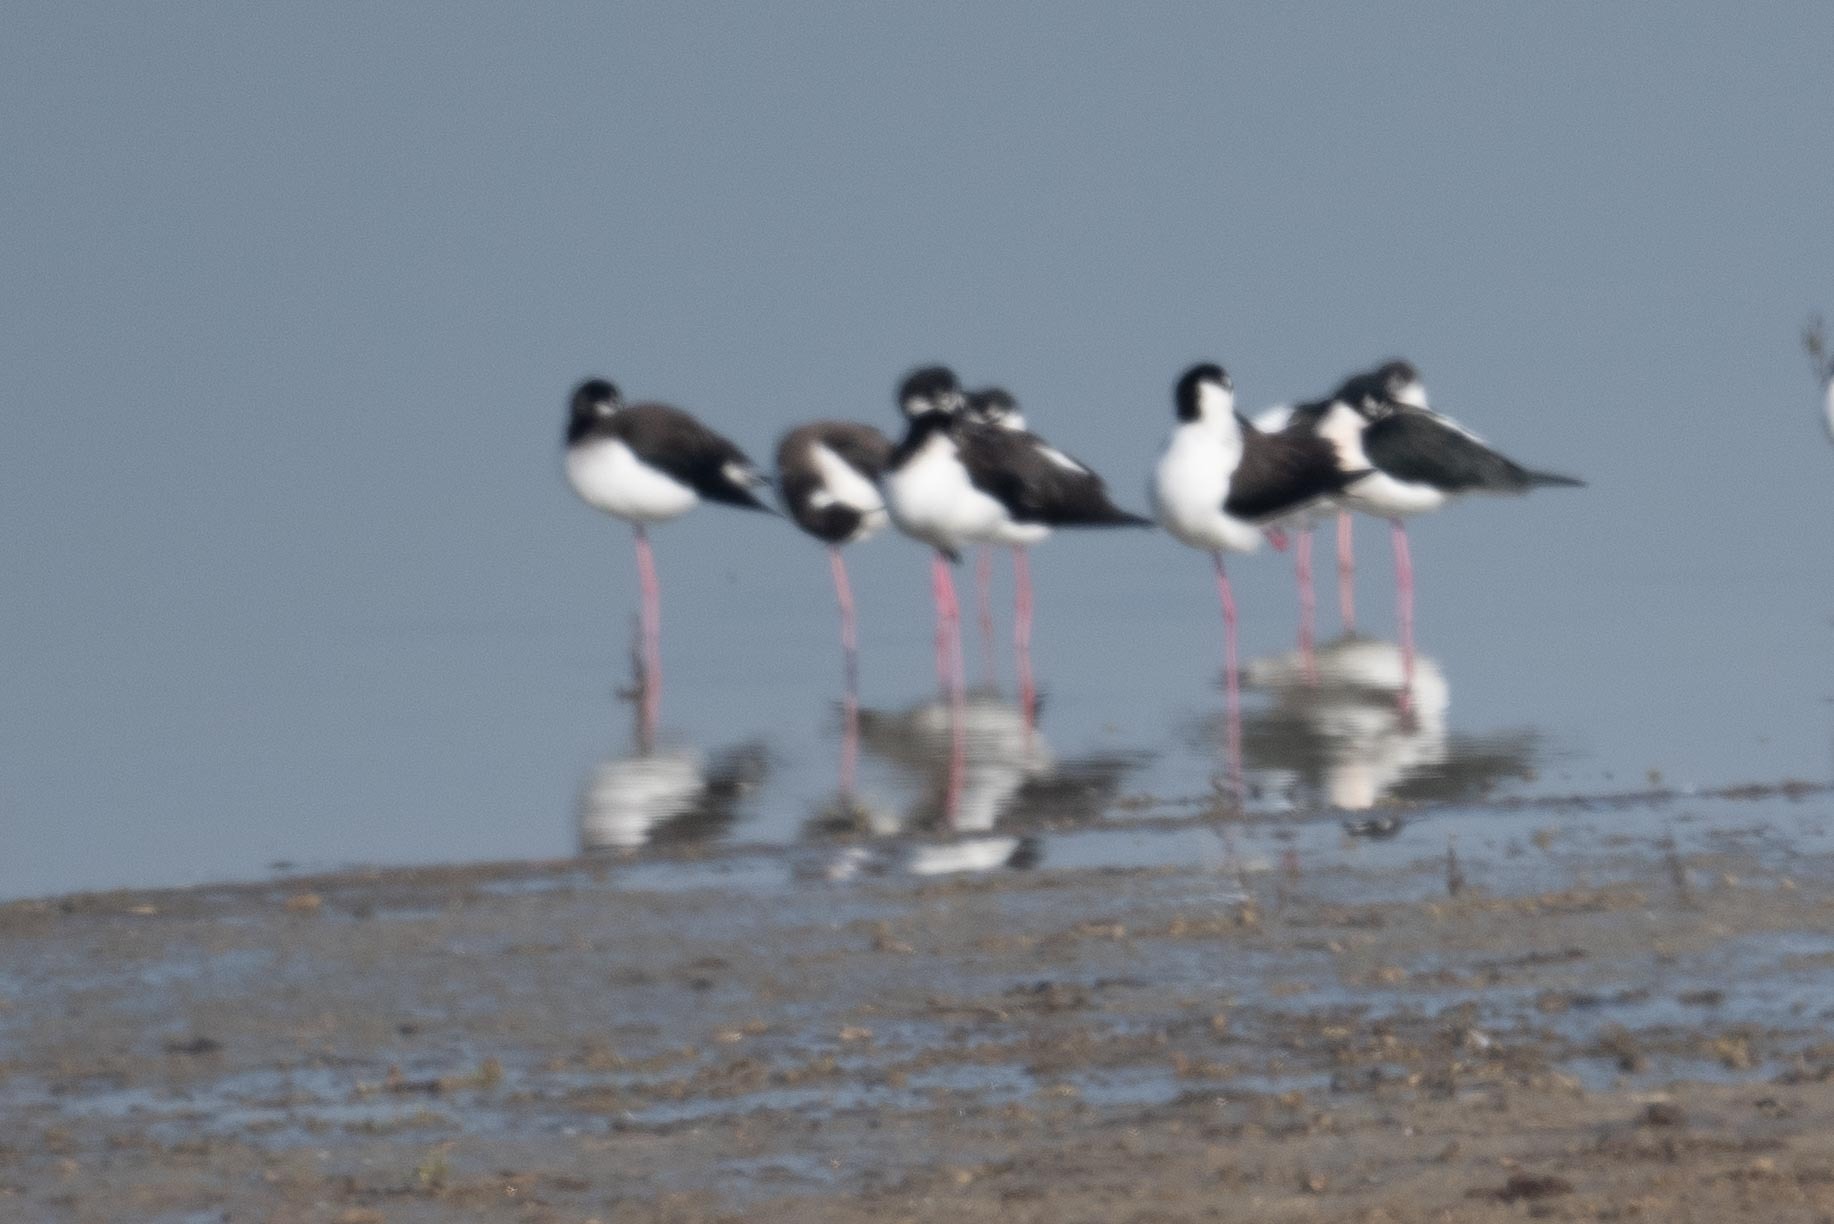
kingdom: Animalia
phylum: Chordata
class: Aves
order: Charadriiformes
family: Recurvirostridae
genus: Himantopus
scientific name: Himantopus mexicanus
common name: Black-necked stilt
